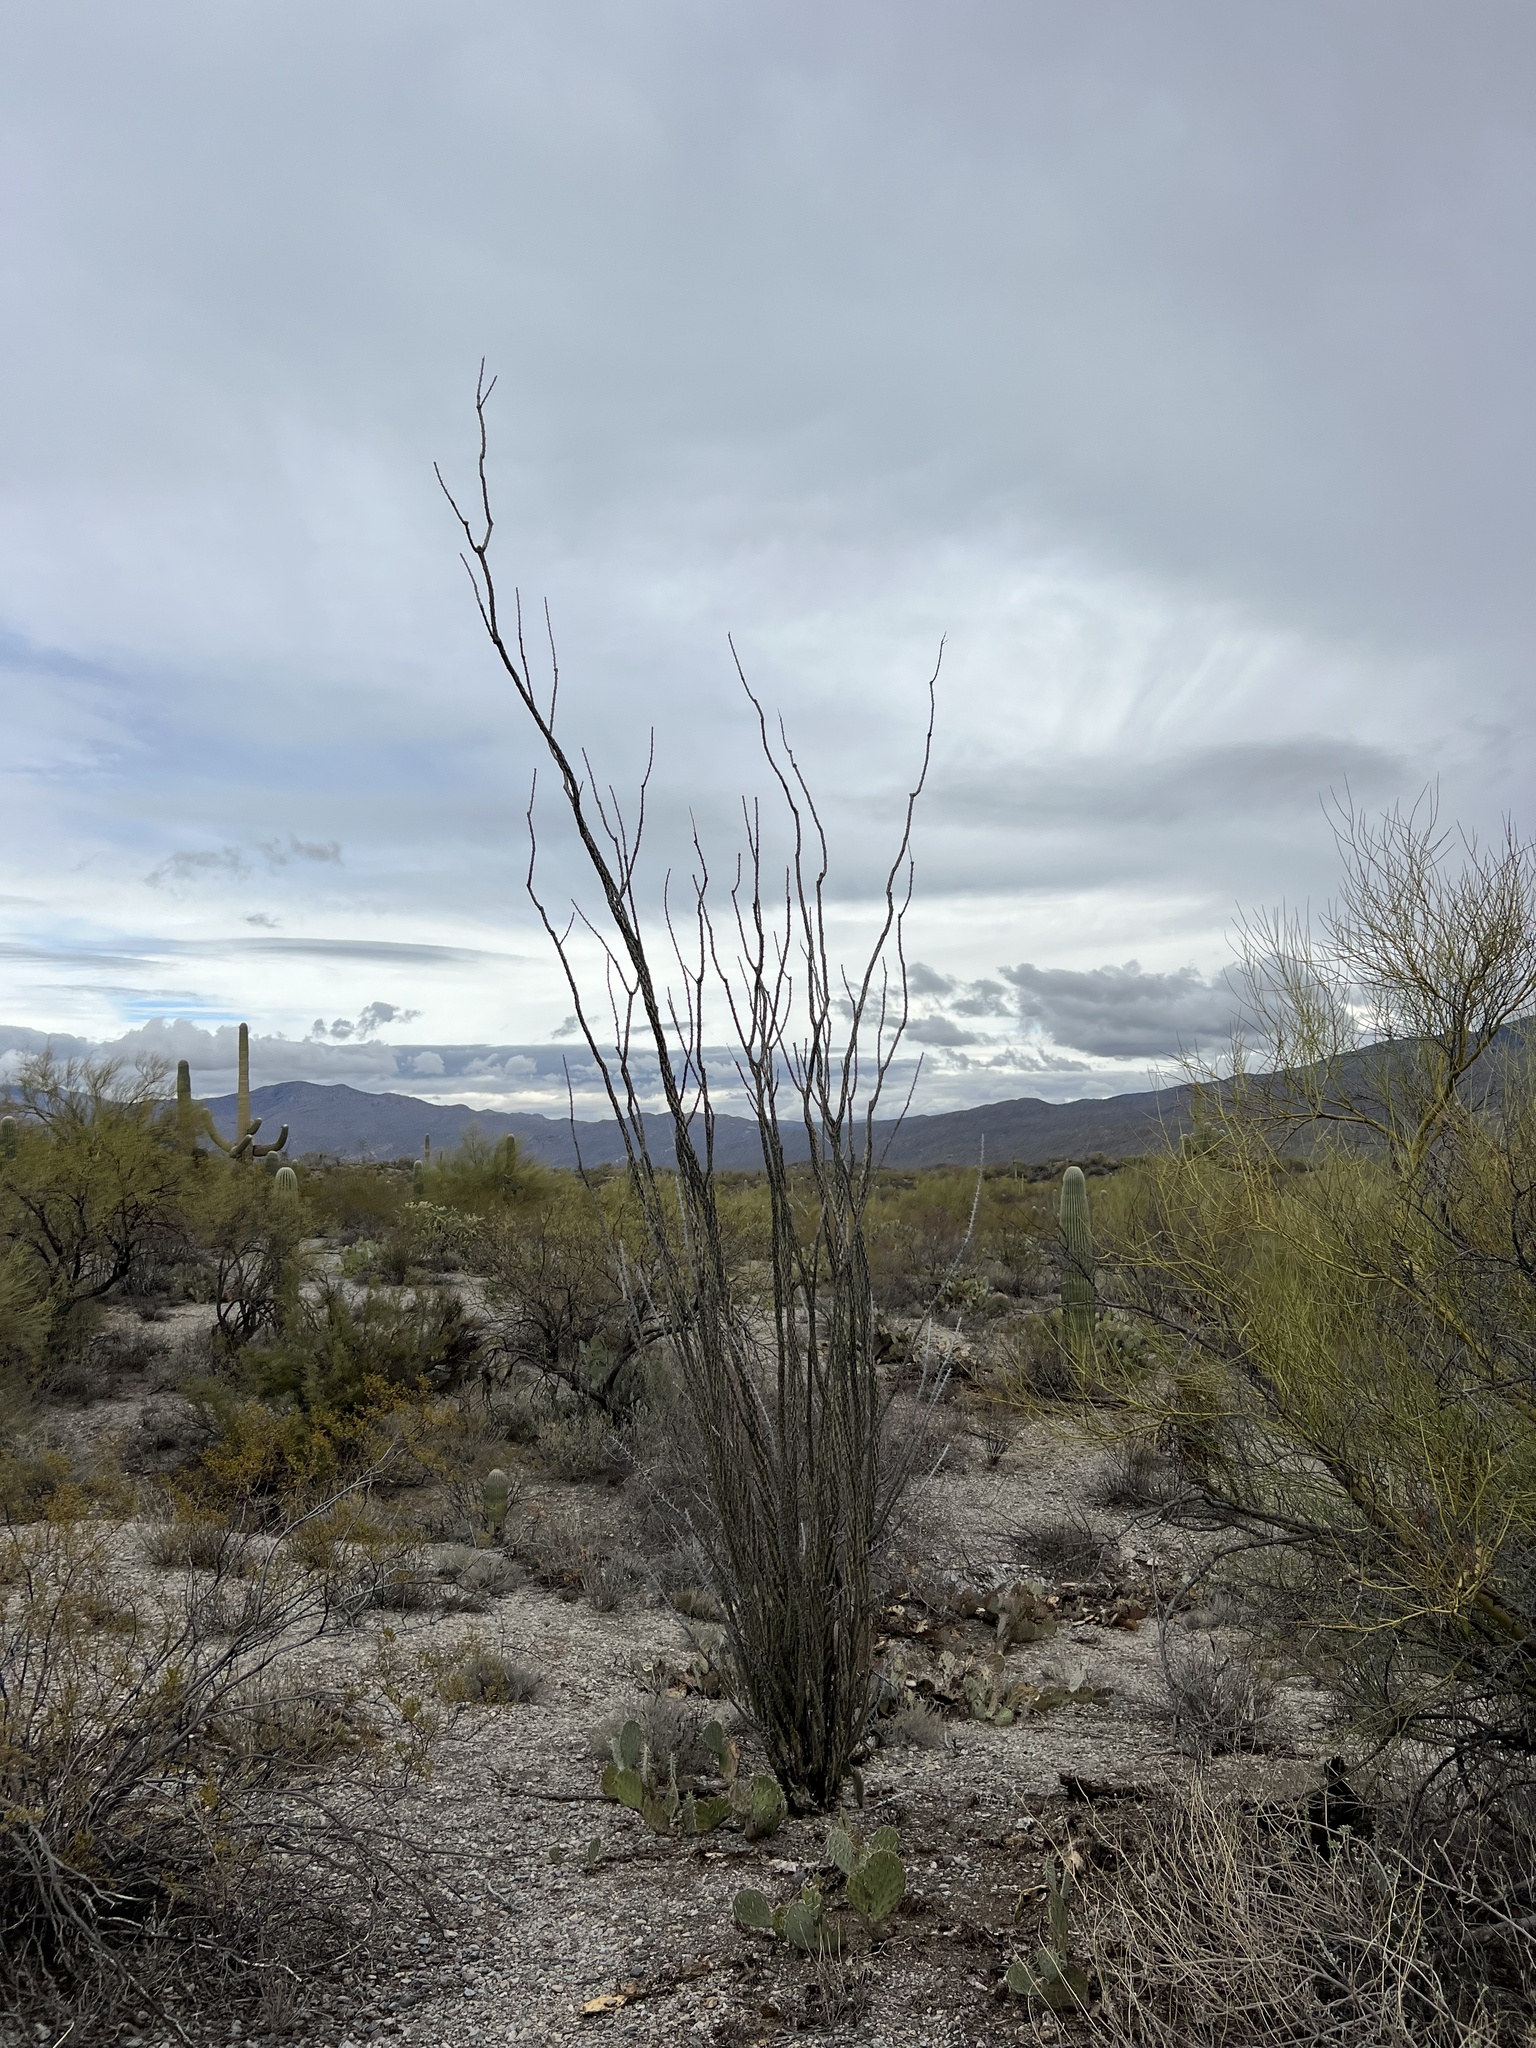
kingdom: Plantae
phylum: Tracheophyta
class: Magnoliopsida
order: Ericales
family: Fouquieriaceae
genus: Fouquieria
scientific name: Fouquieria splendens
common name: Vine-cactus
